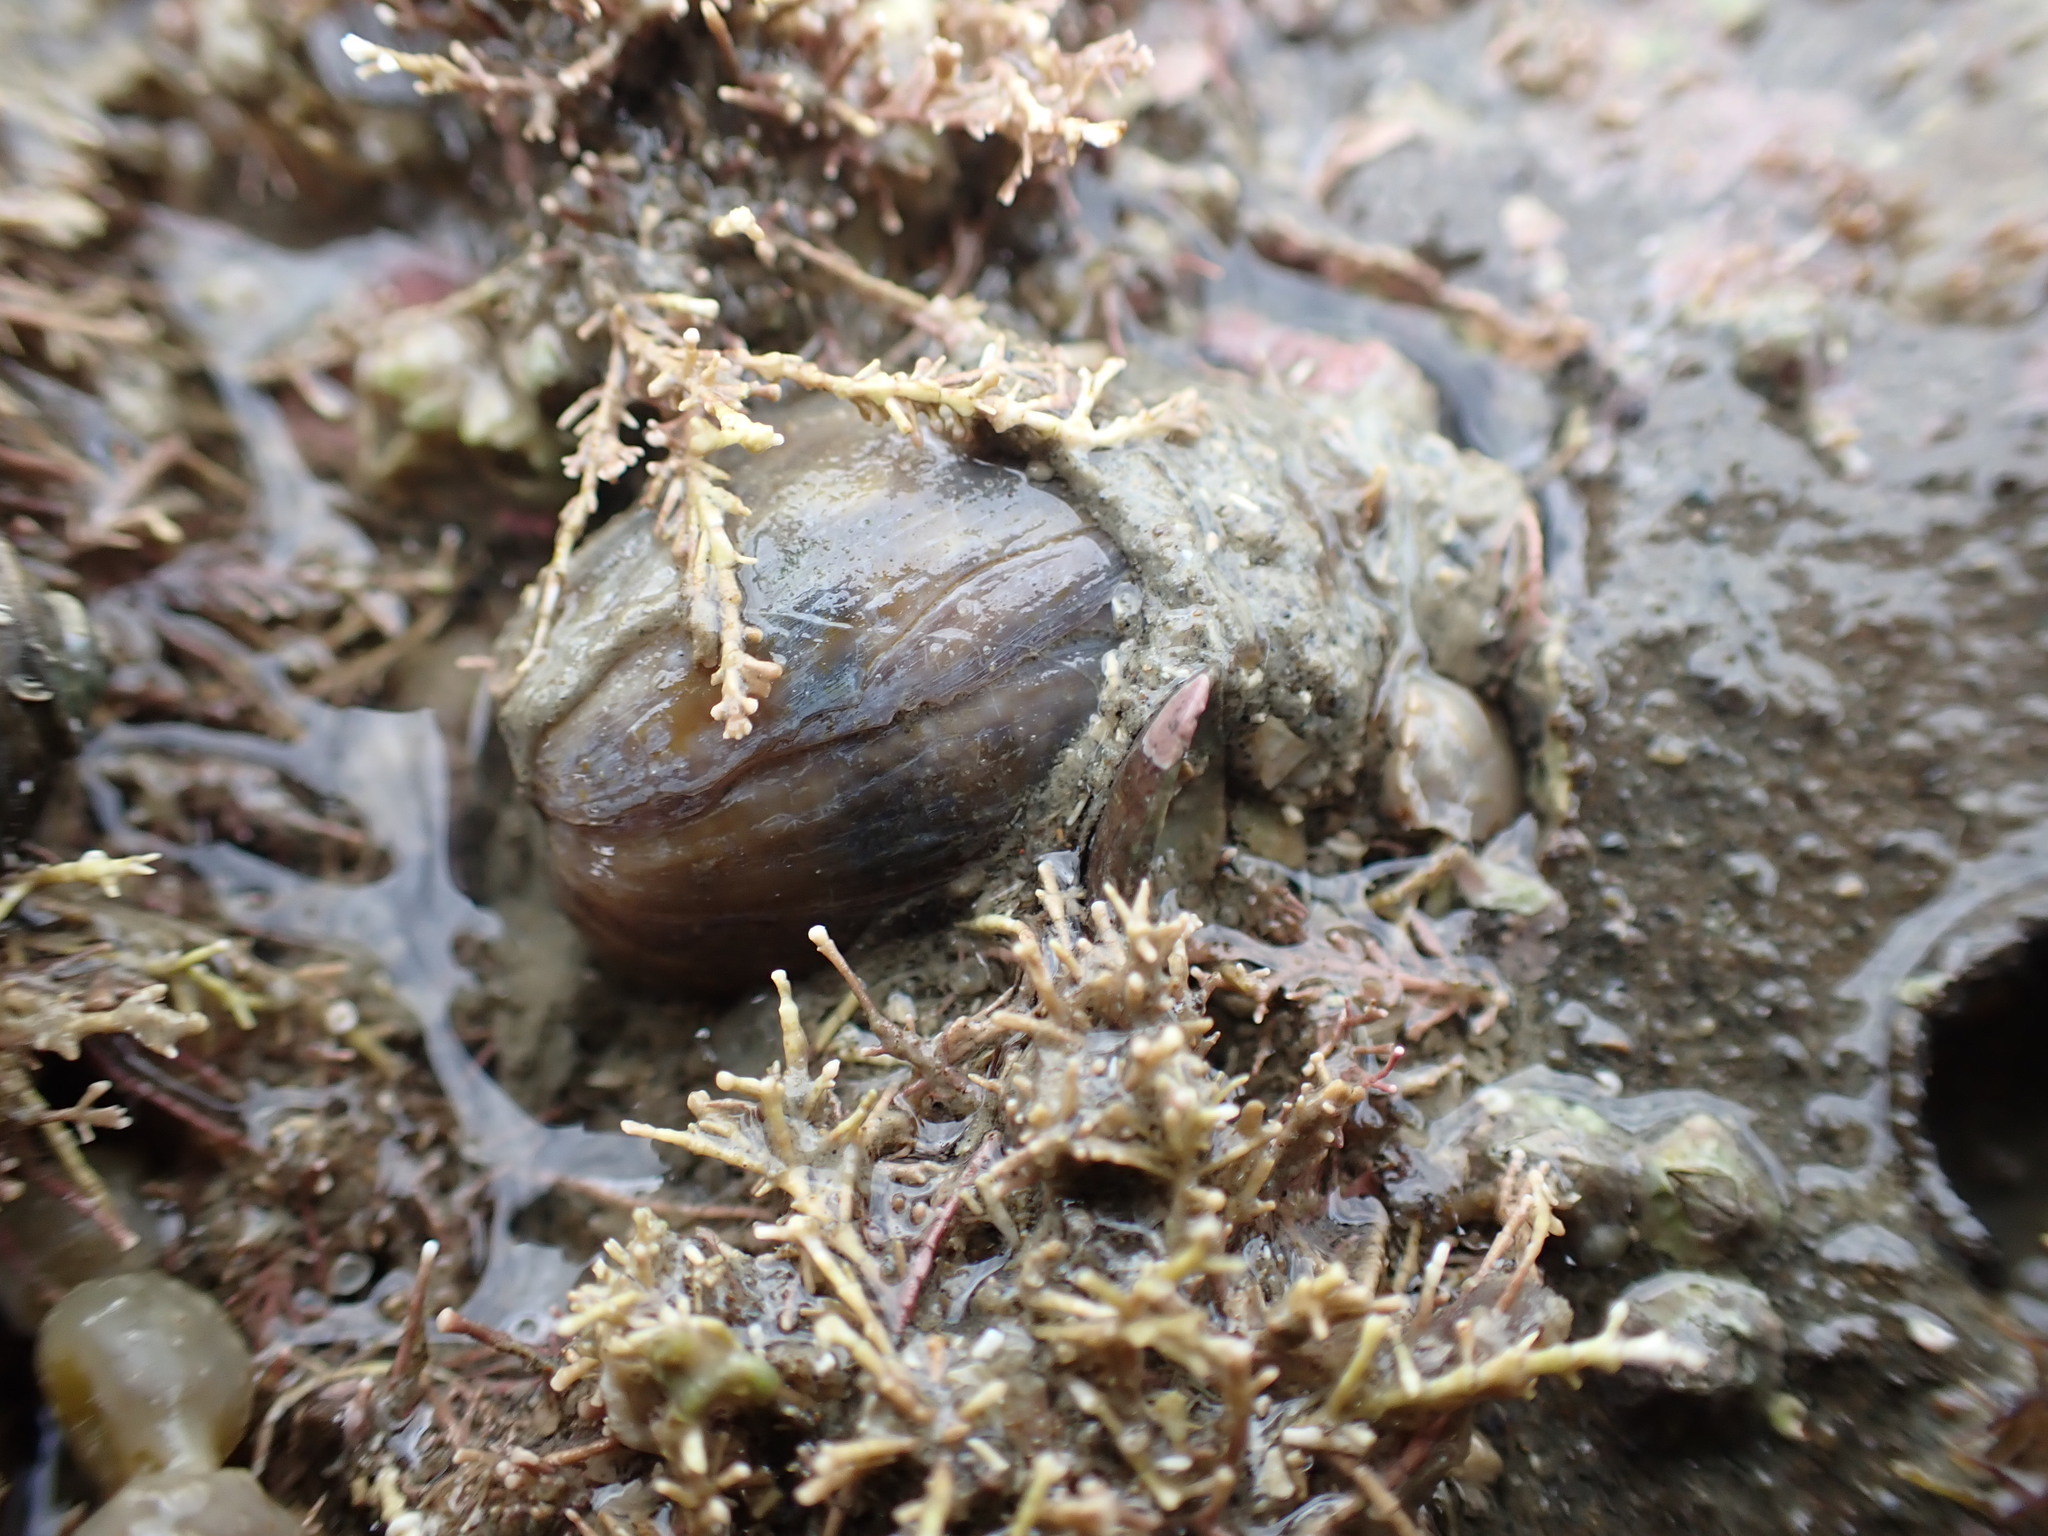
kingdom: Animalia
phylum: Mollusca
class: Gastropoda
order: Cephalaspidea
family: Bullidae
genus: Bulla
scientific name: Bulla quoyii
